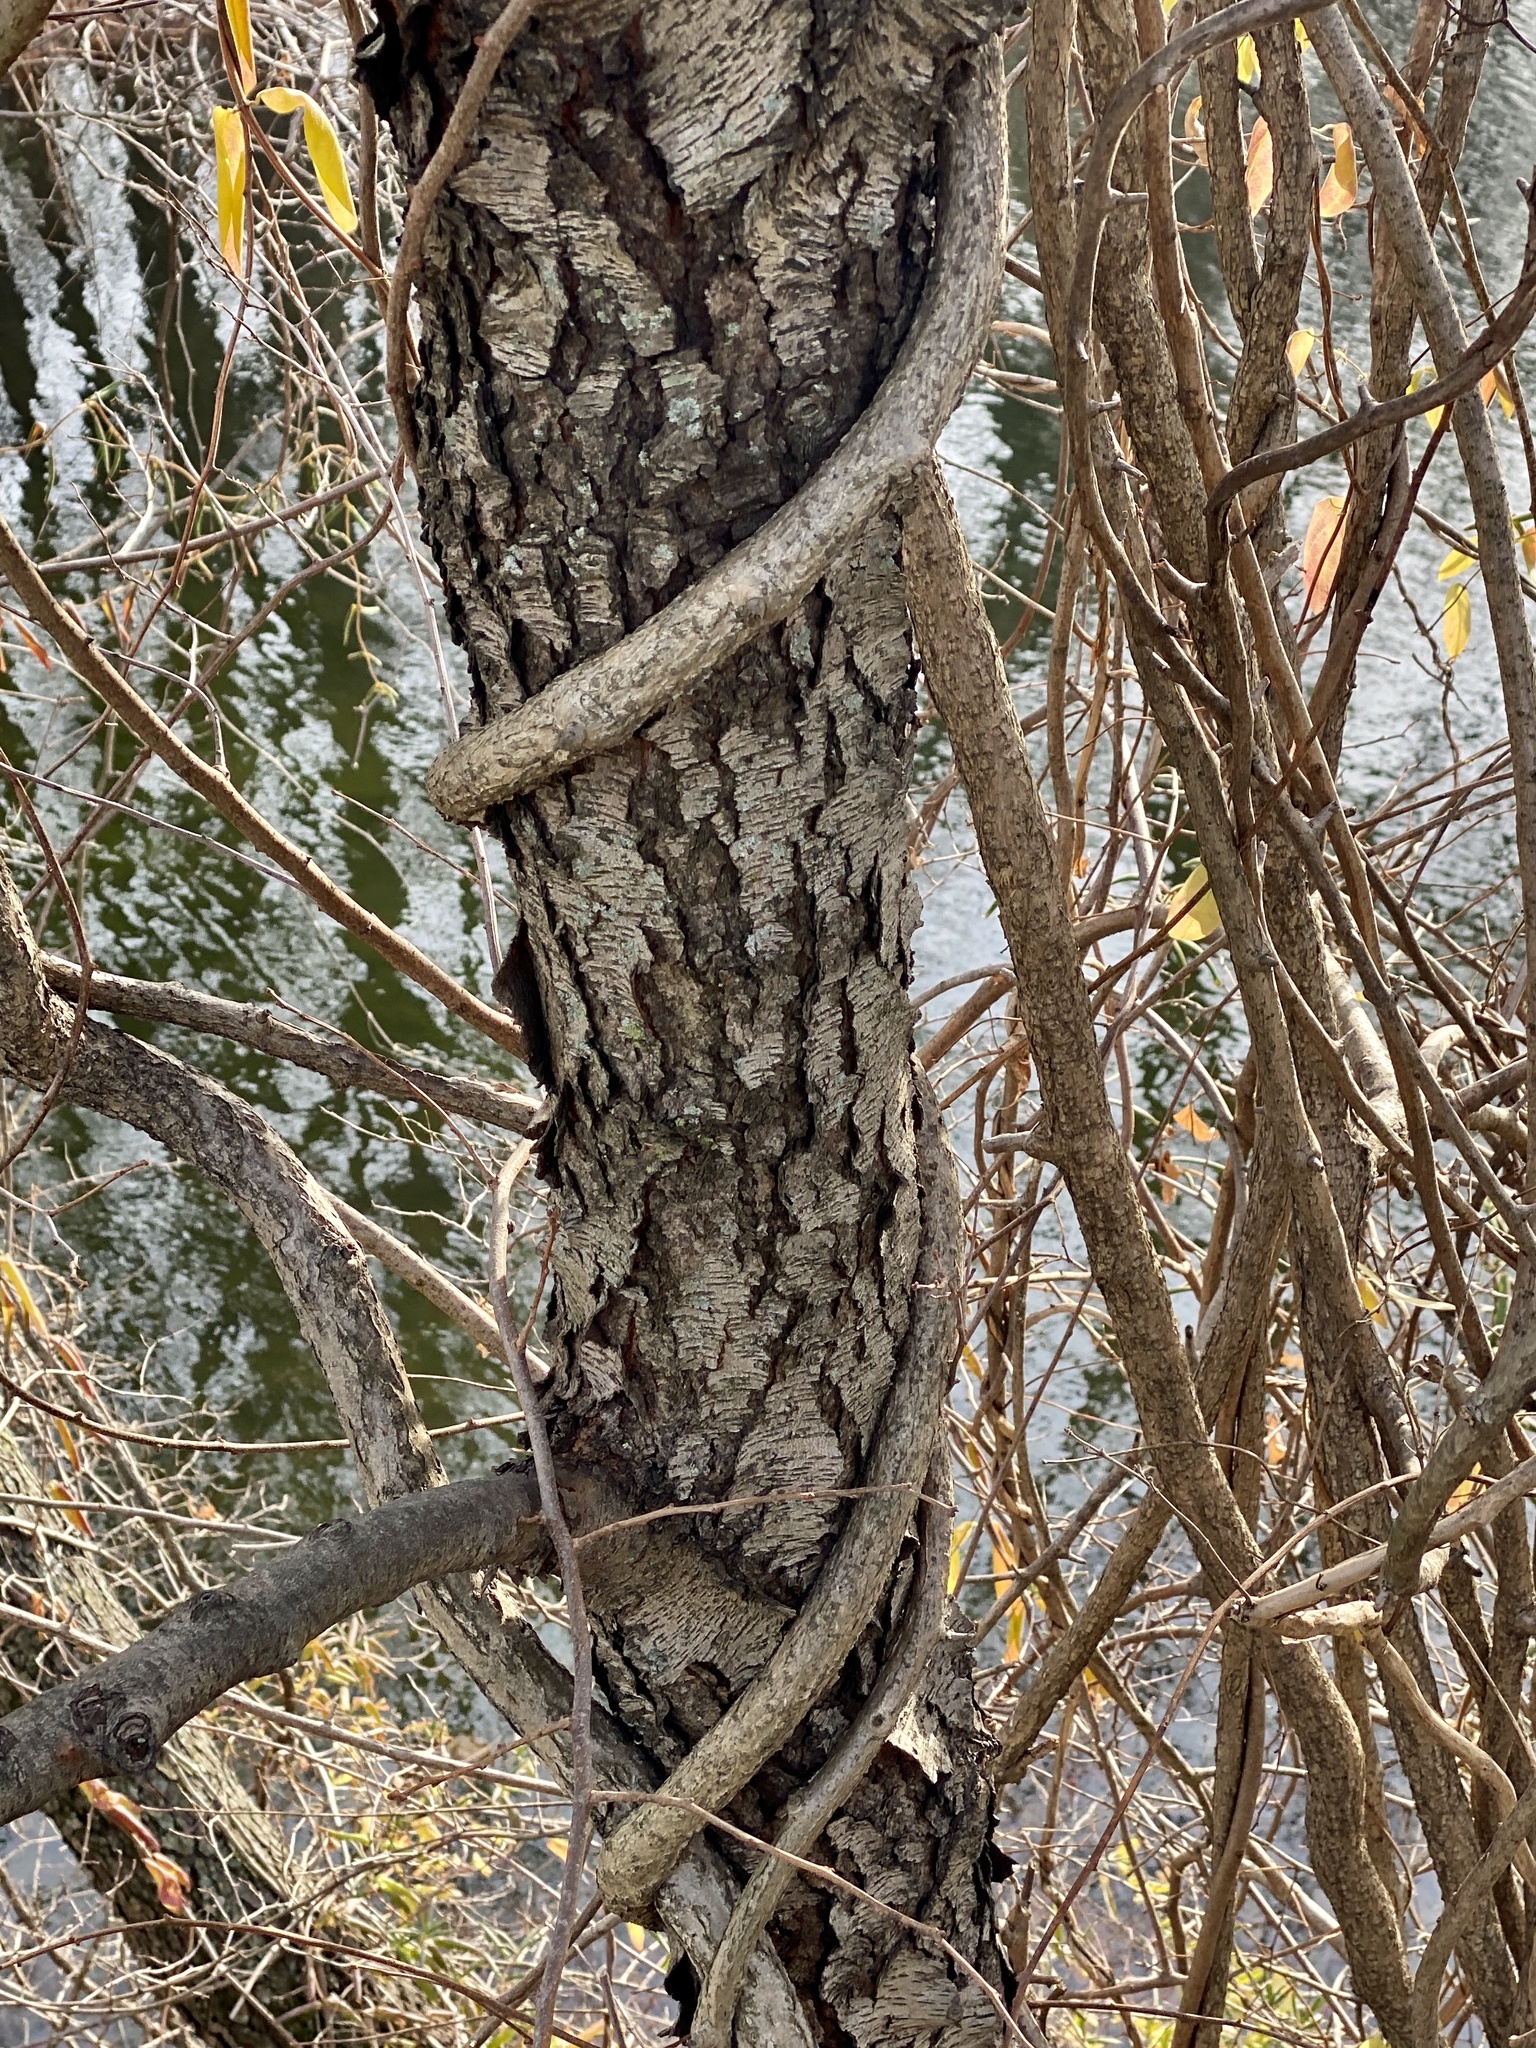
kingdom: Plantae
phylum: Tracheophyta
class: Magnoliopsida
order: Celastrales
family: Celastraceae
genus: Celastrus
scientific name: Celastrus orbiculatus
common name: Oriental bittersweet
